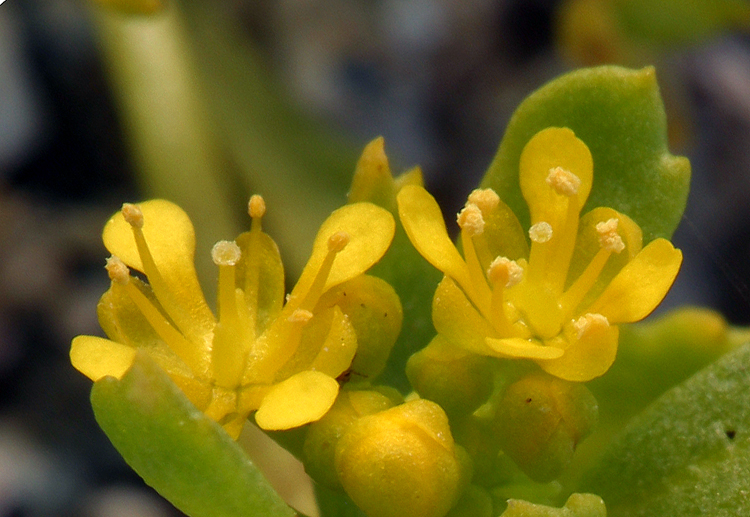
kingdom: Plantae
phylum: Tracheophyta
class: Magnoliopsida
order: Brassicales
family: Brassicaceae
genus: Lepidium
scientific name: Lepidium flavum
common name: Yellow pepperwort
